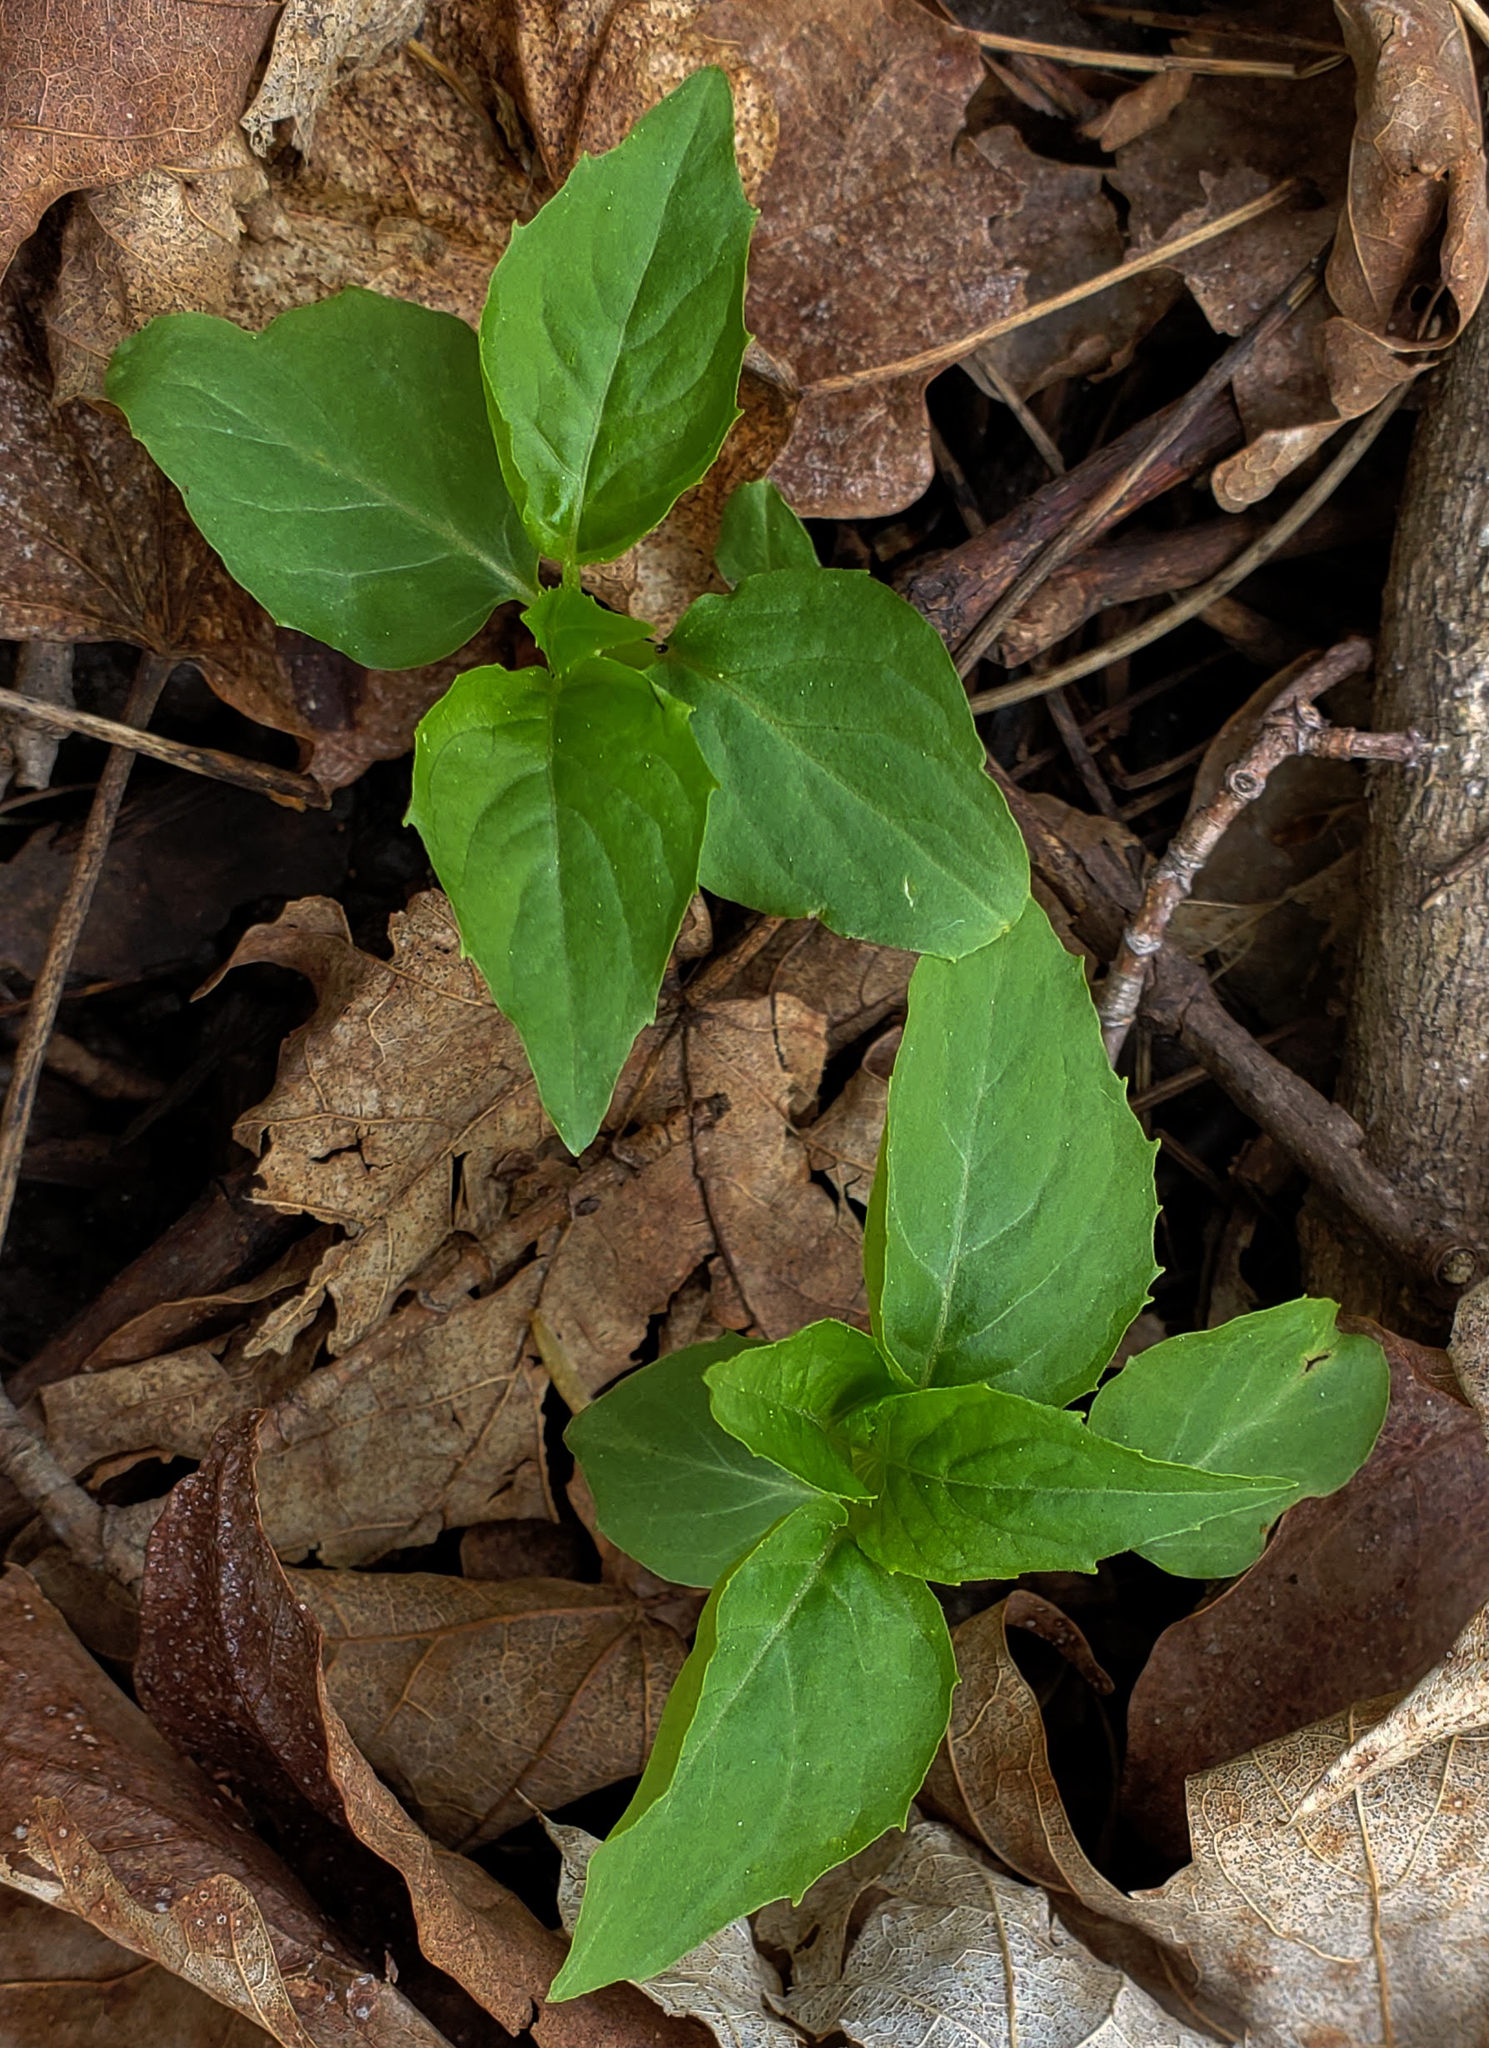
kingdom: Plantae
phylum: Tracheophyta
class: Magnoliopsida
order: Myrtales
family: Onagraceae
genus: Circaea
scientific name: Circaea canadensis
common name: Broad-leaved enchanter's nightshade
